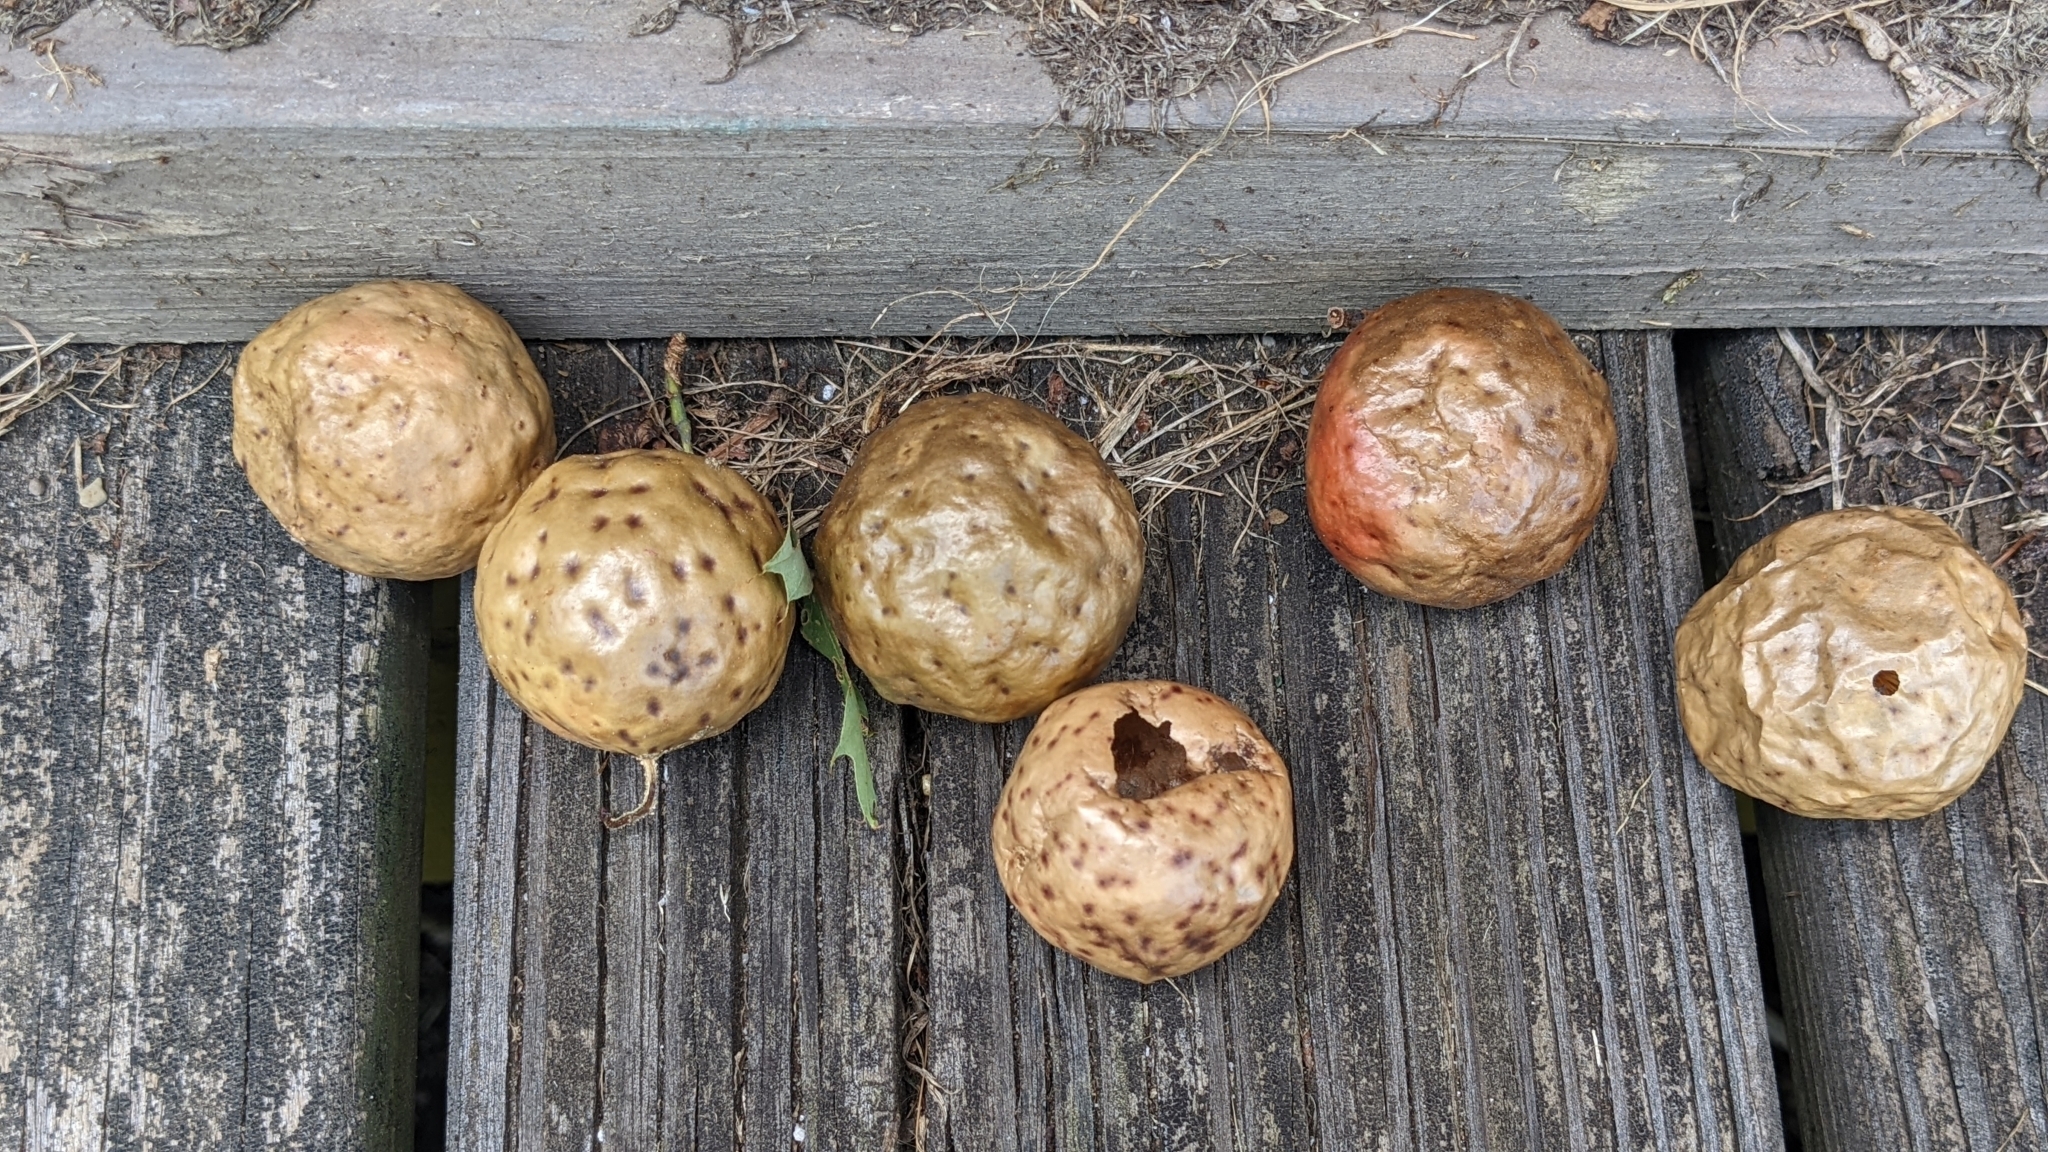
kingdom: Animalia
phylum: Arthropoda
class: Insecta
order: Hymenoptera
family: Cynipidae
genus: Amphibolips
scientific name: Amphibolips
